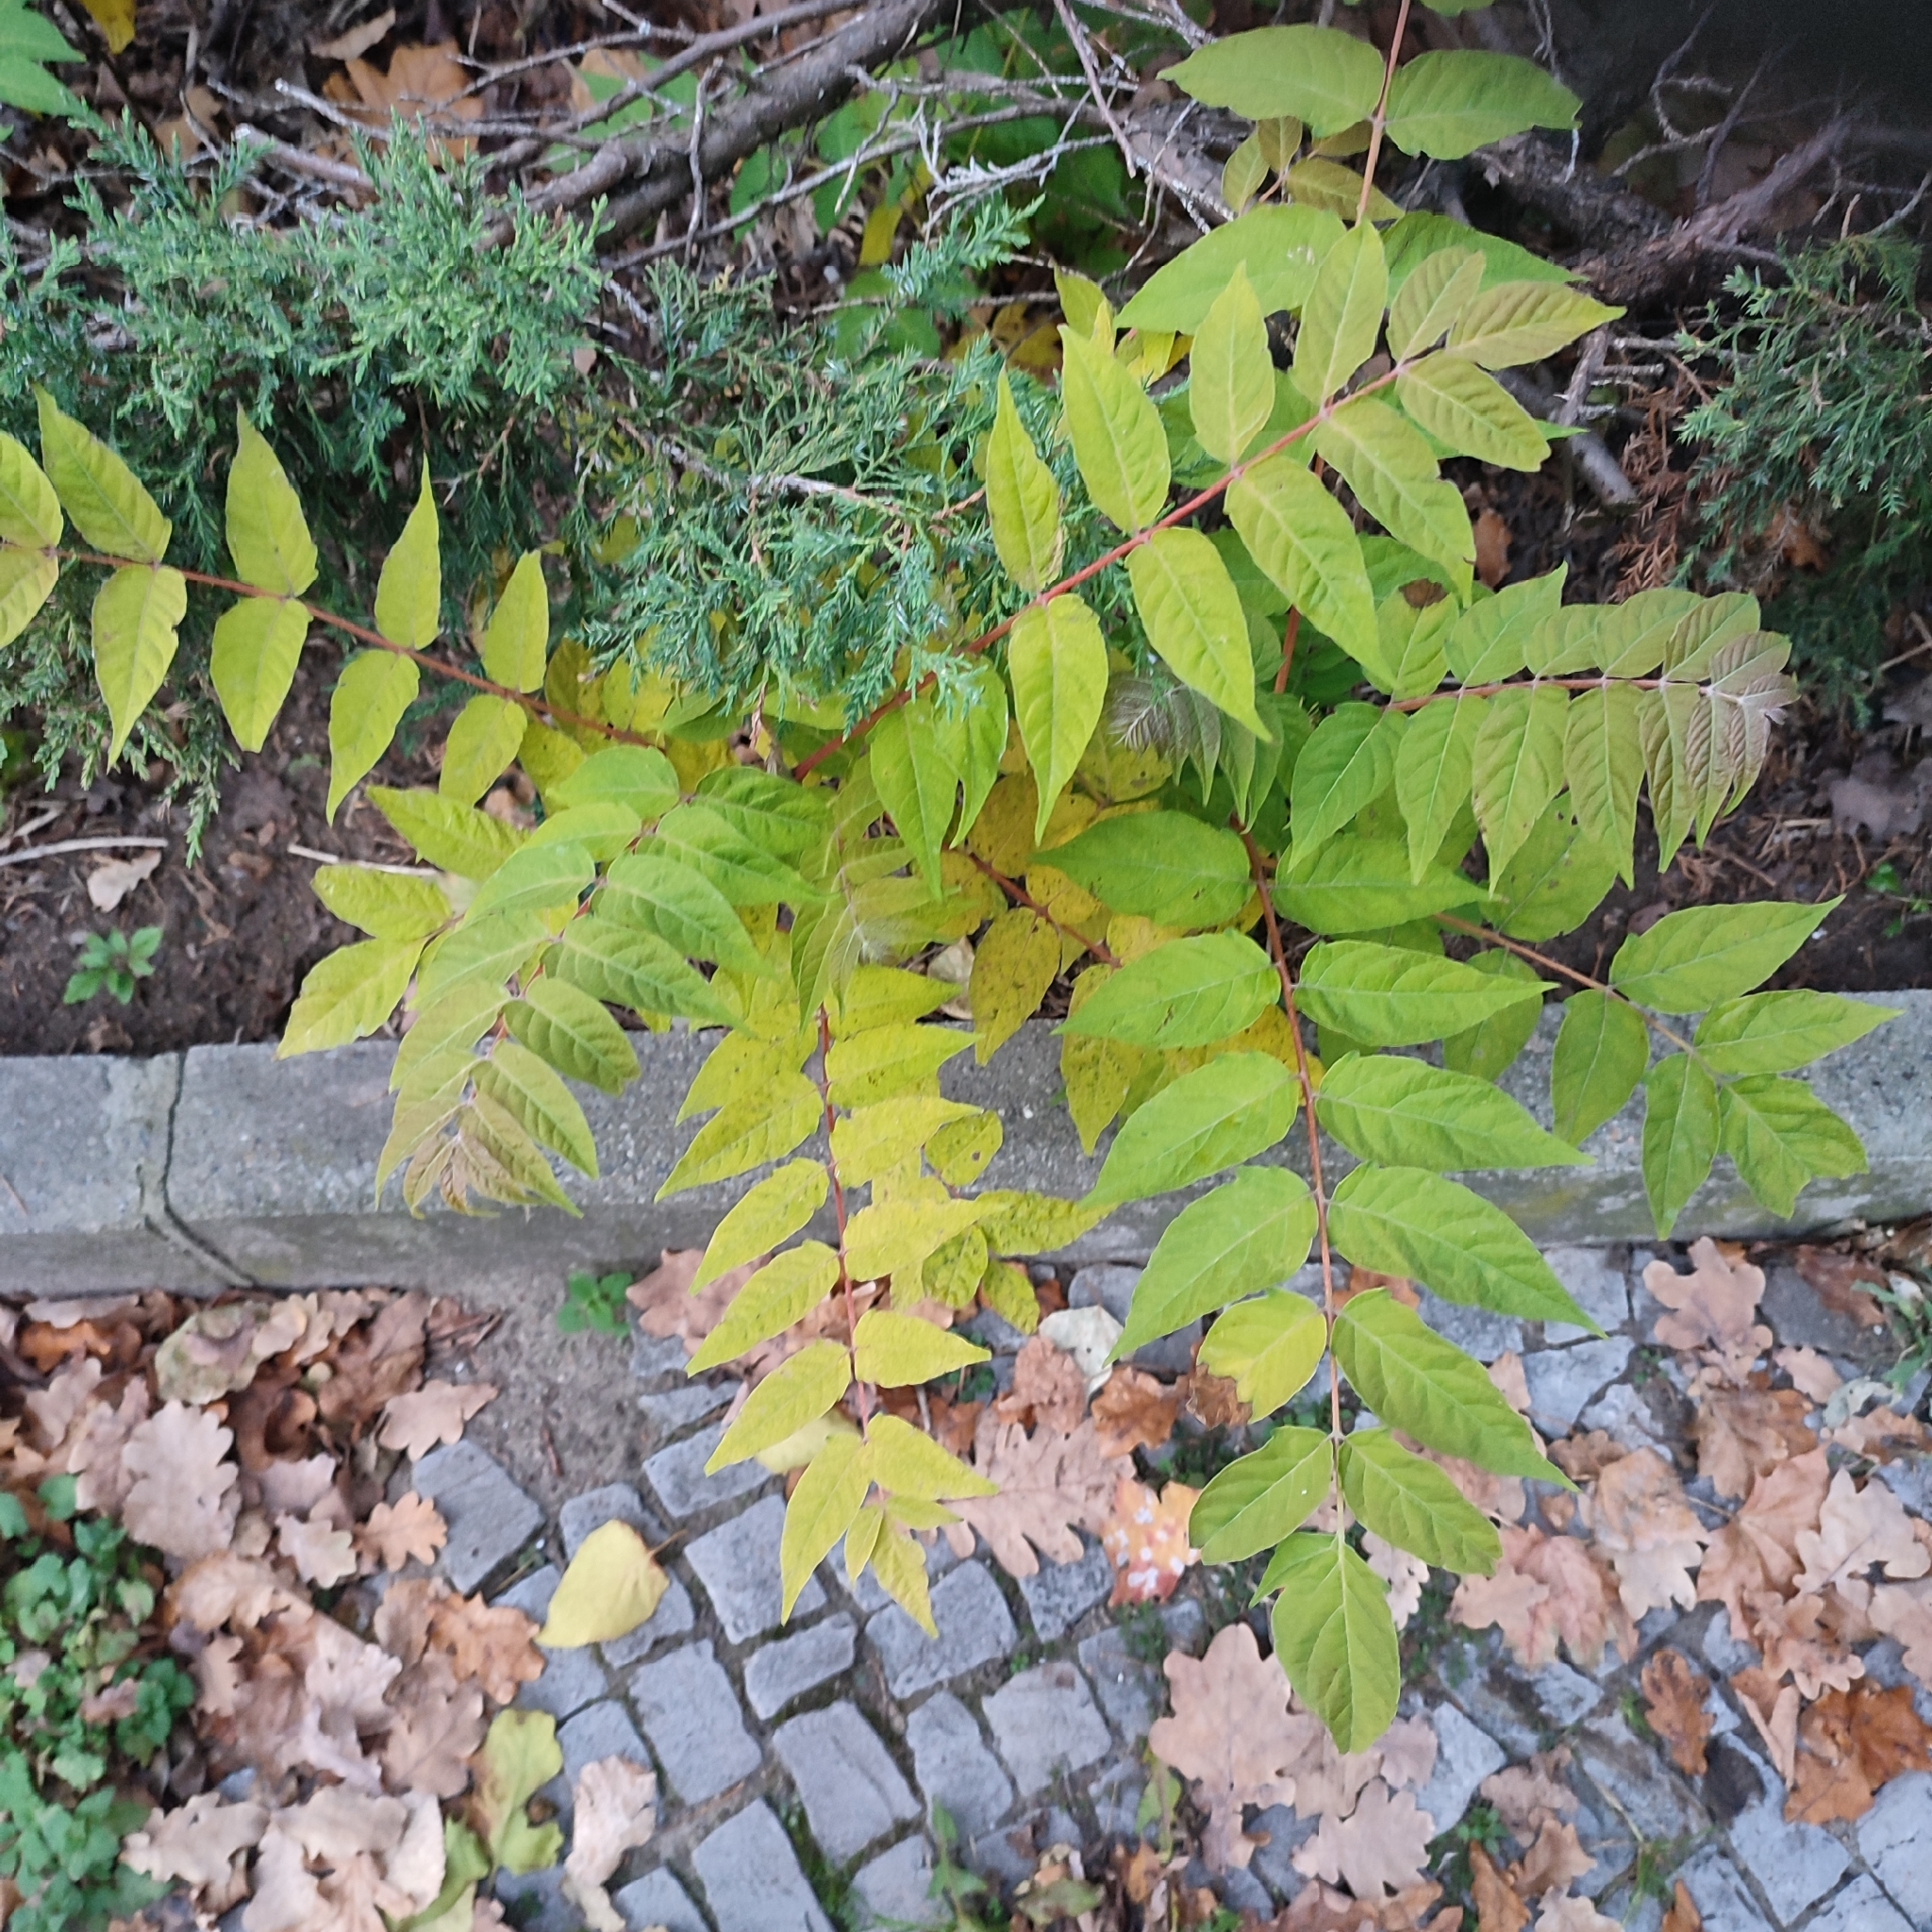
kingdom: Plantae
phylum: Tracheophyta
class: Magnoliopsida
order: Sapindales
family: Simaroubaceae
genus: Ailanthus
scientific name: Ailanthus altissima
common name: Tree-of-heaven
